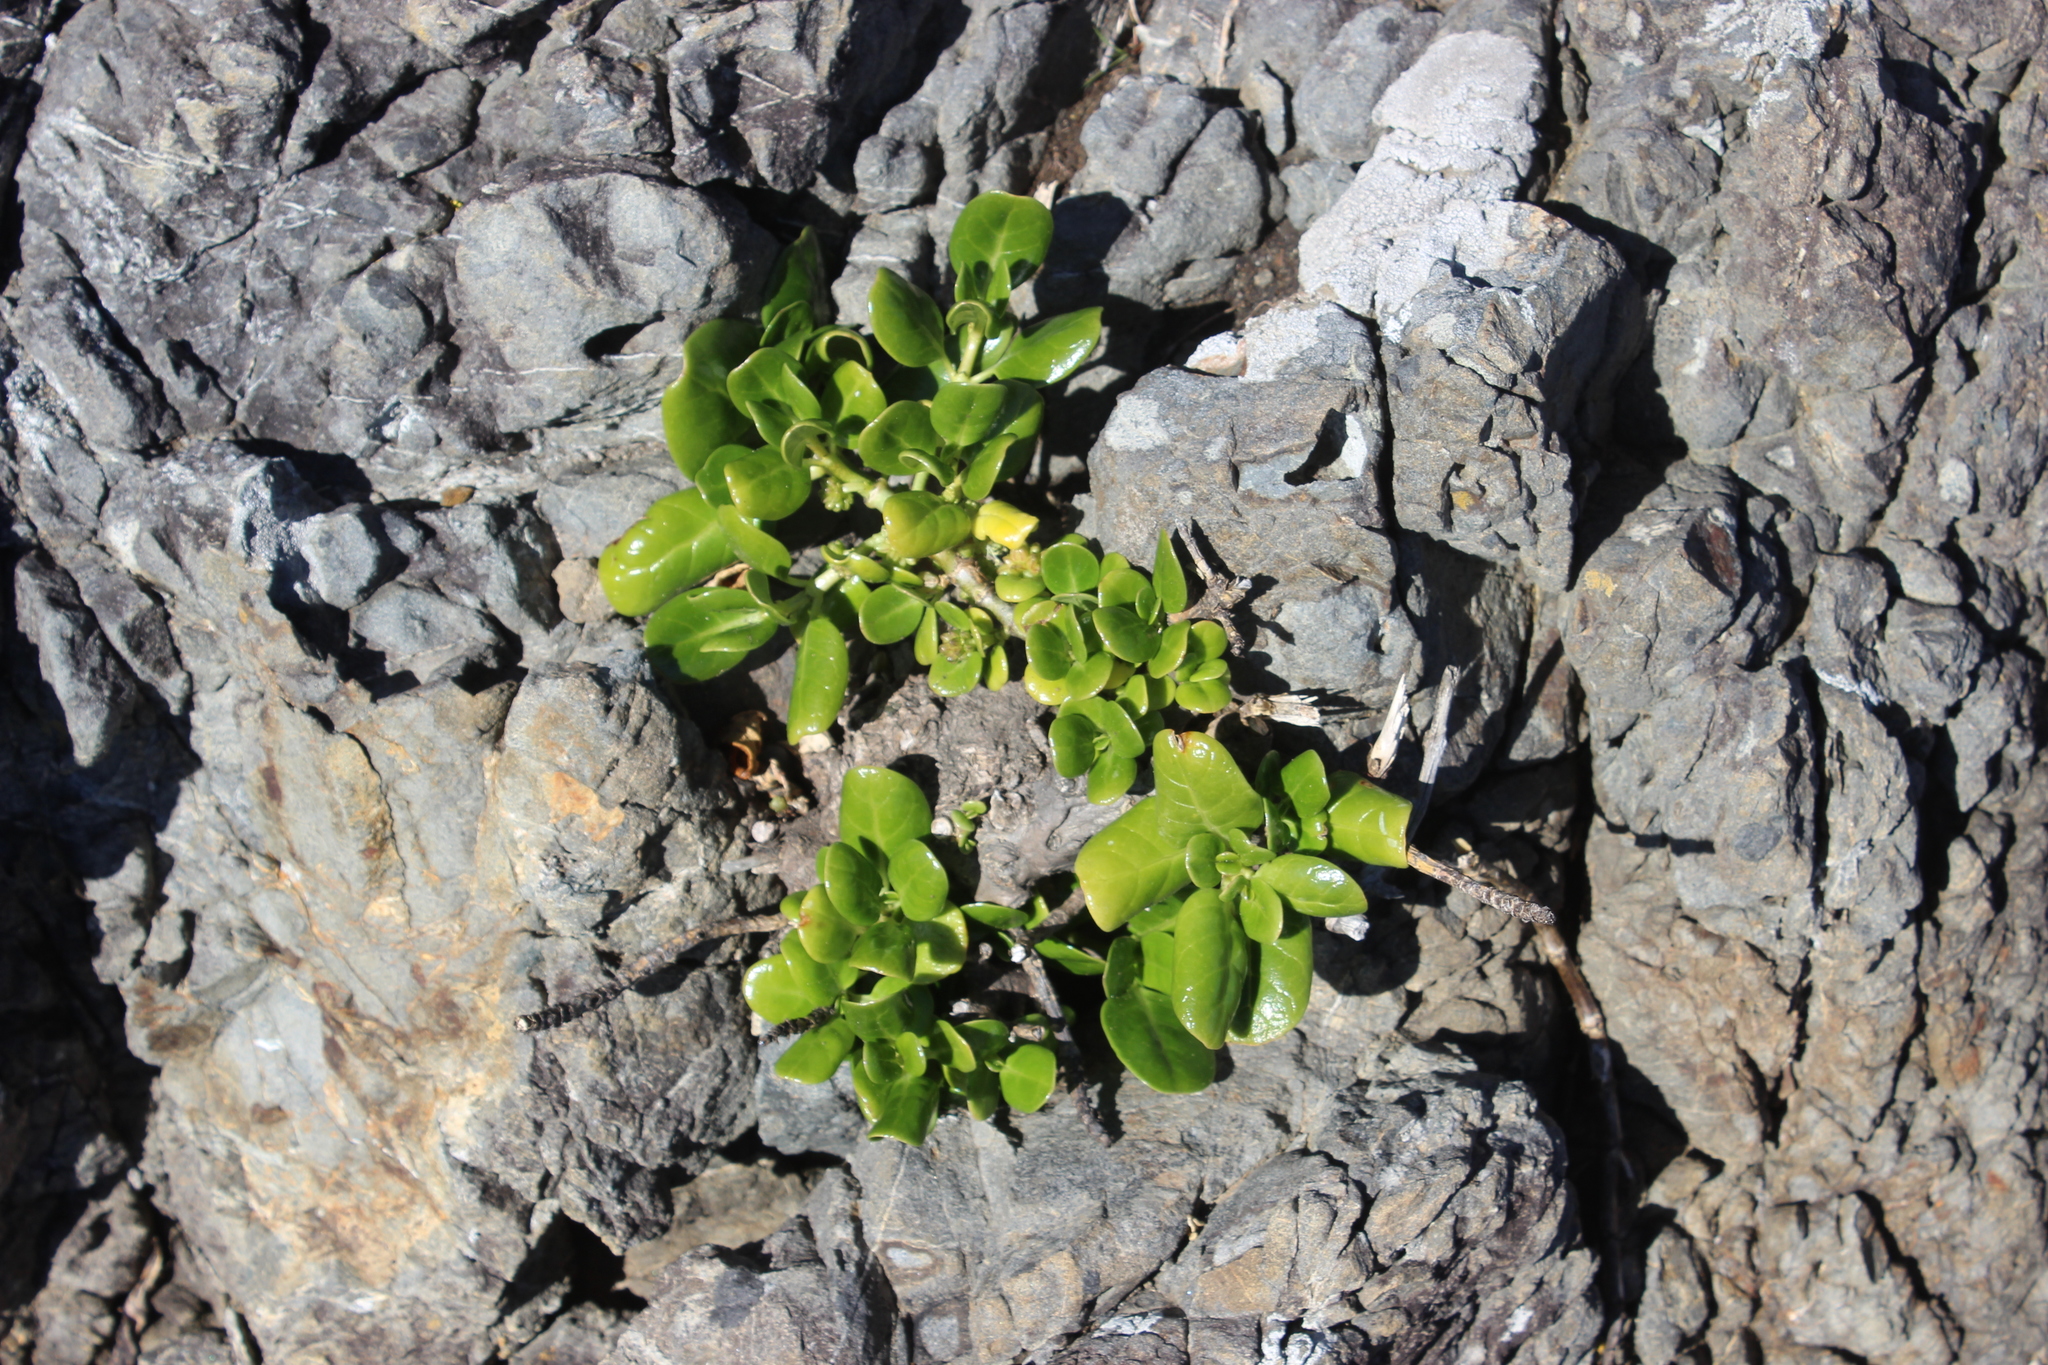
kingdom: Plantae
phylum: Tracheophyta
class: Magnoliopsida
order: Gentianales
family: Rubiaceae
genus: Coprosma
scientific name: Coprosma repens
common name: Tree bedstraw
